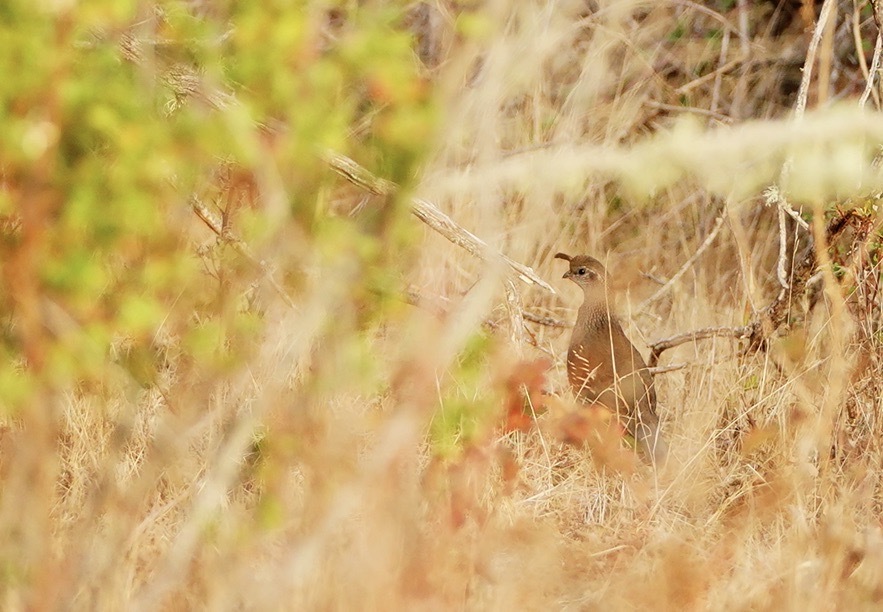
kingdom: Animalia
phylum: Chordata
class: Aves
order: Galliformes
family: Odontophoridae
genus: Callipepla
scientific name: Callipepla californica
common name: California quail
